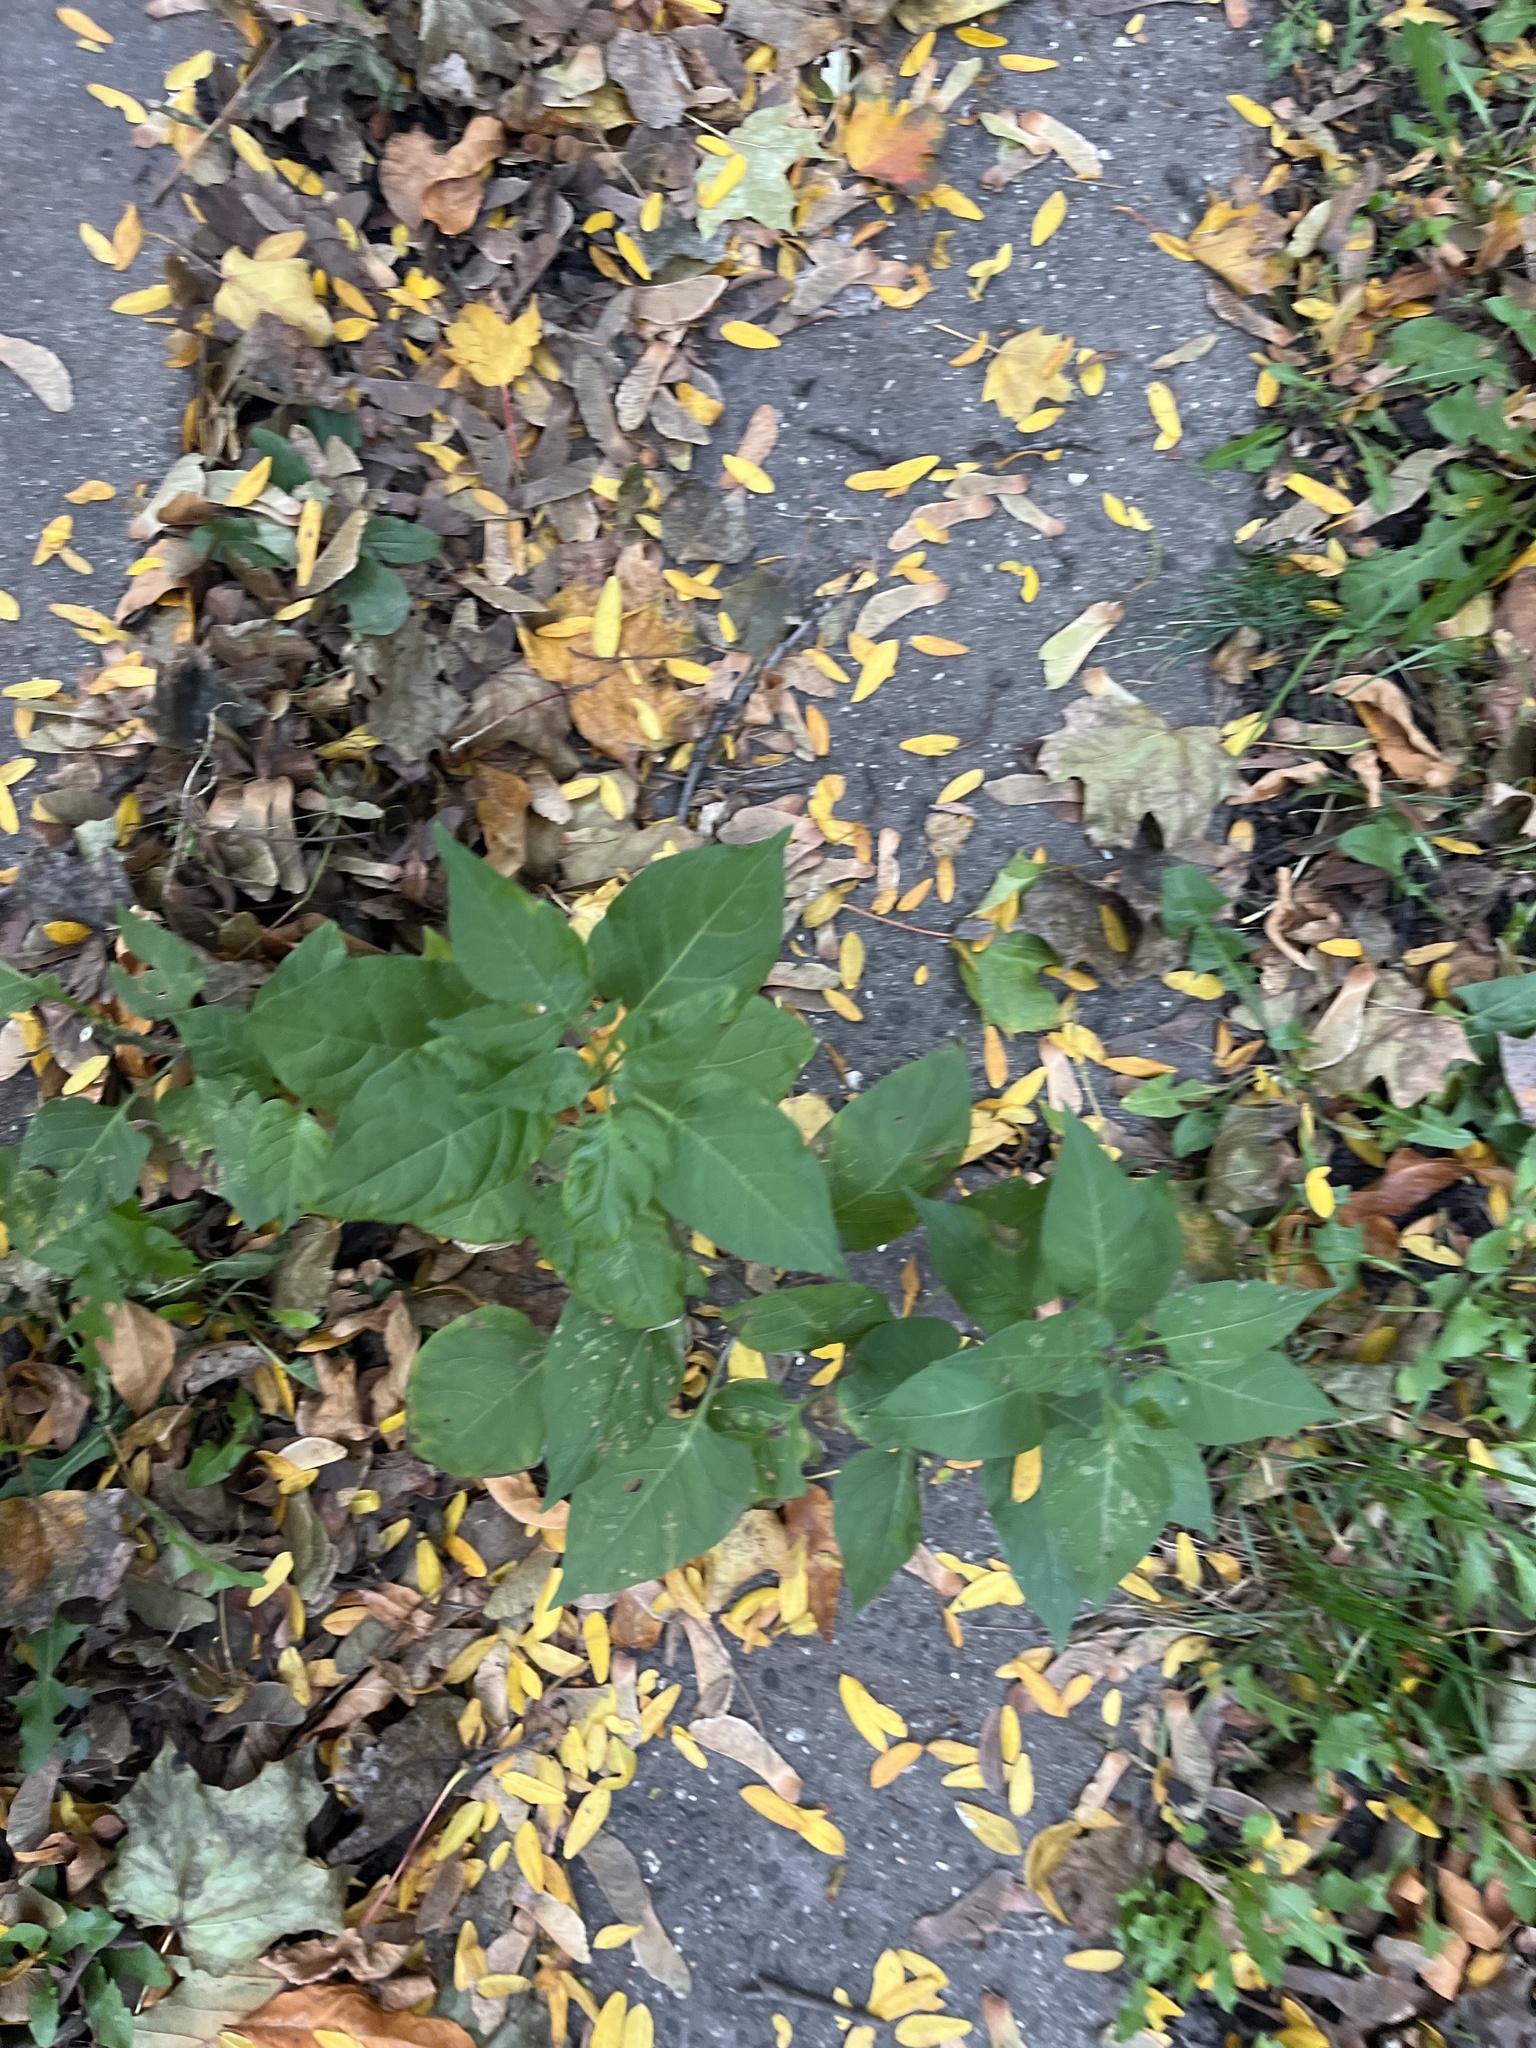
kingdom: Plantae
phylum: Tracheophyta
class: Magnoliopsida
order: Solanales
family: Solanaceae
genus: Solanum
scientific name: Solanum dulcamara
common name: Climbing nightshade
